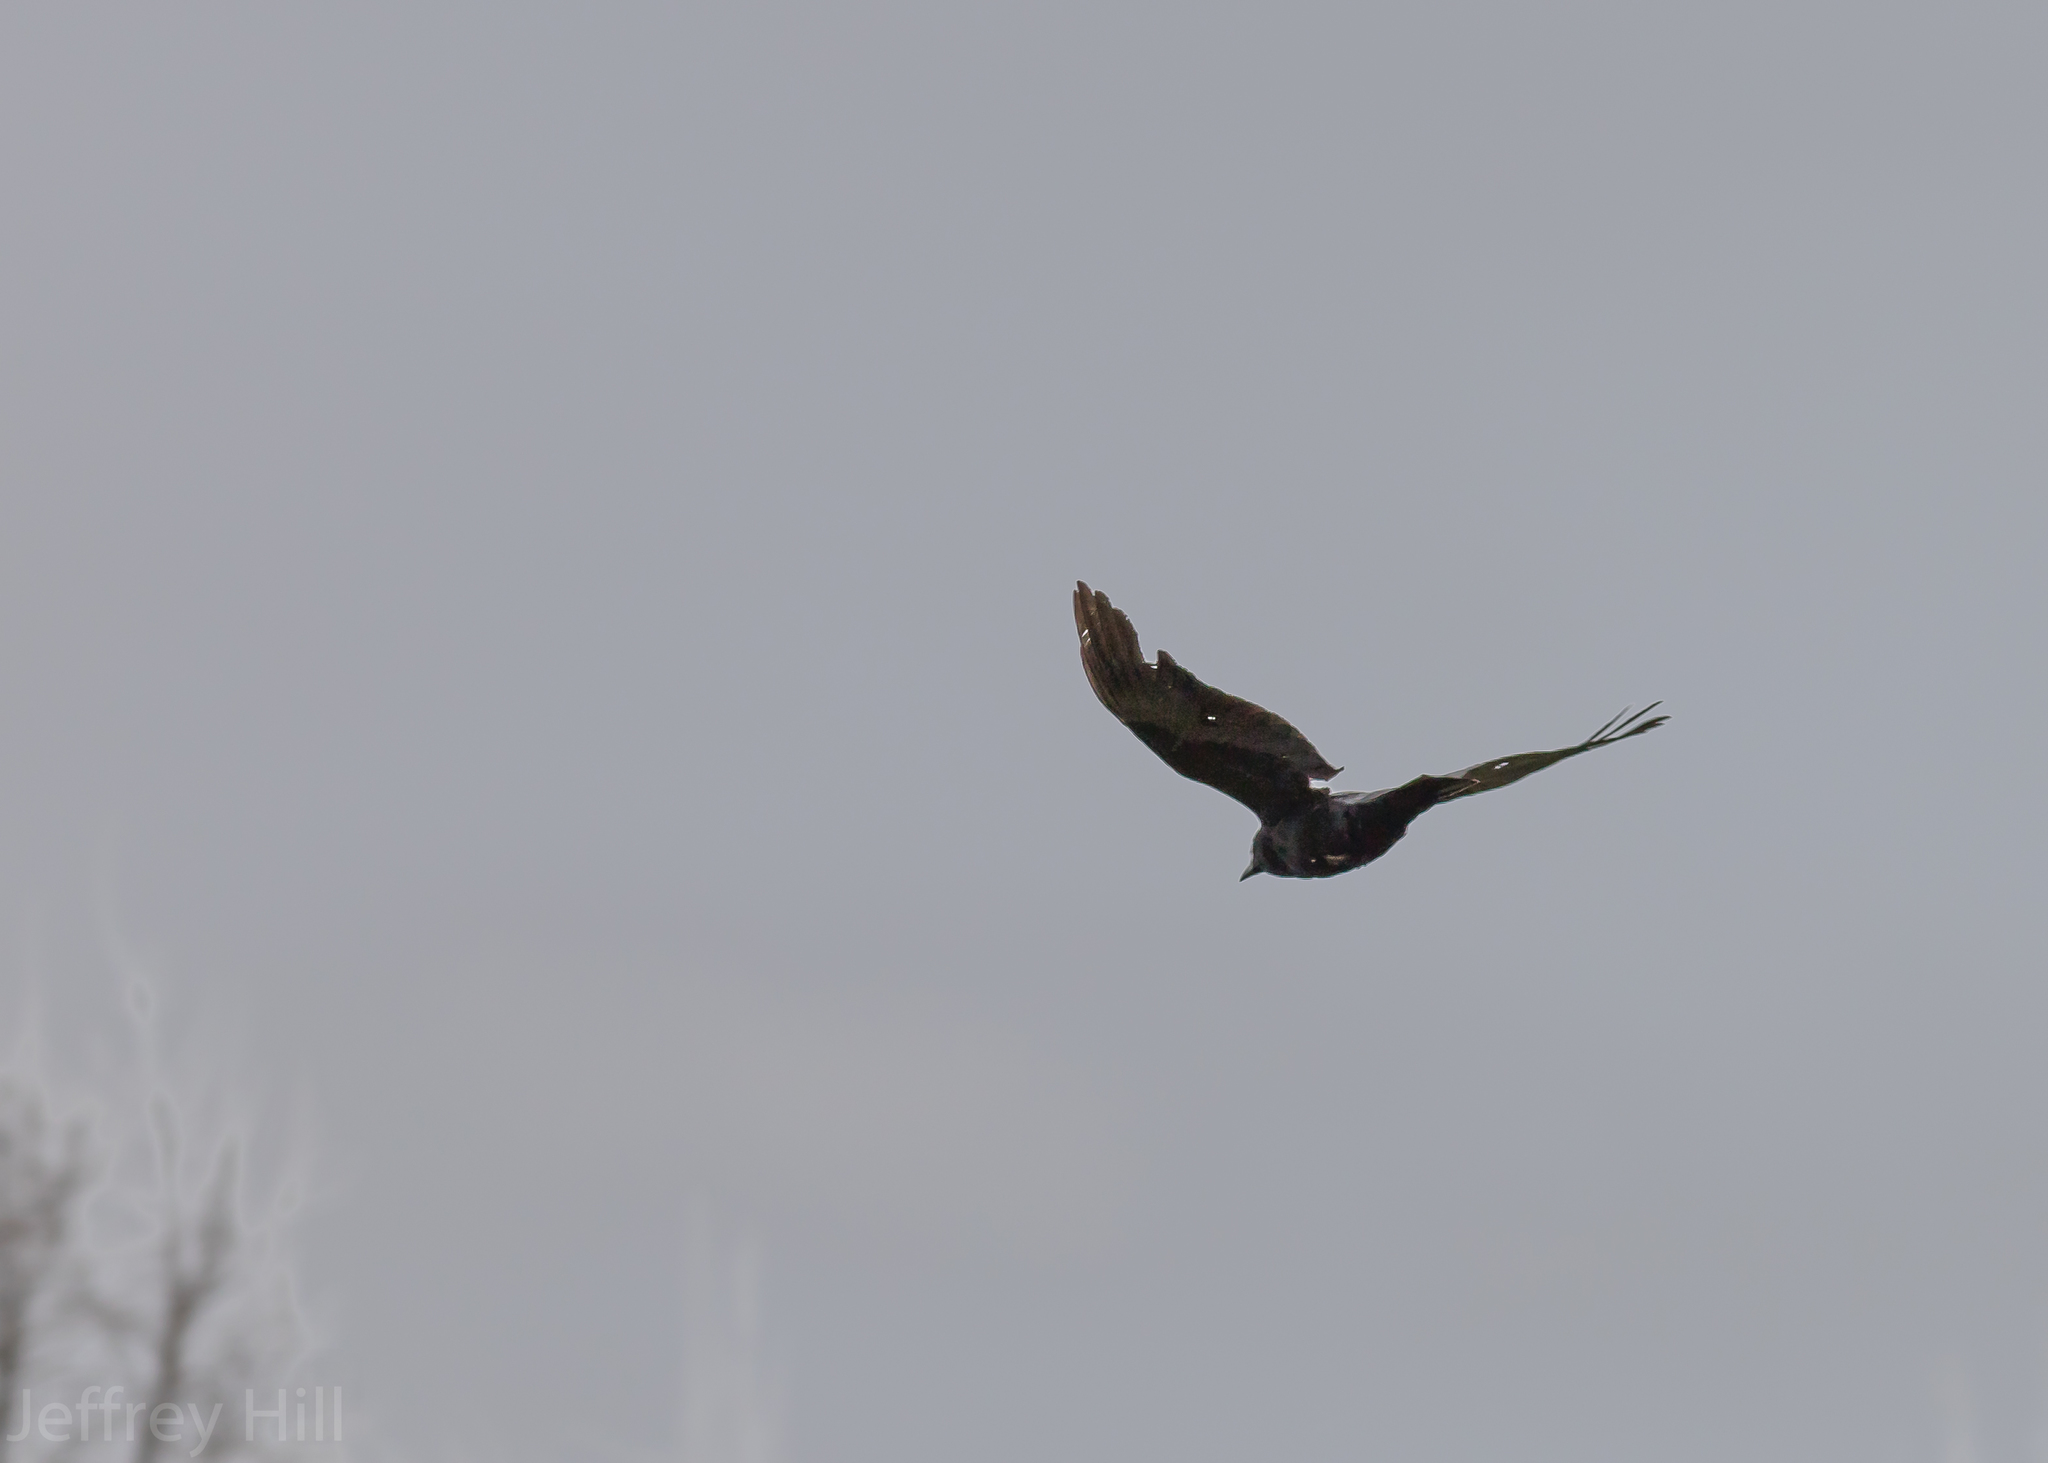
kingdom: Animalia
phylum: Chordata
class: Aves
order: Passeriformes
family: Corvidae
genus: Corvus
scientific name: Corvus brachyrhynchos
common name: American crow
